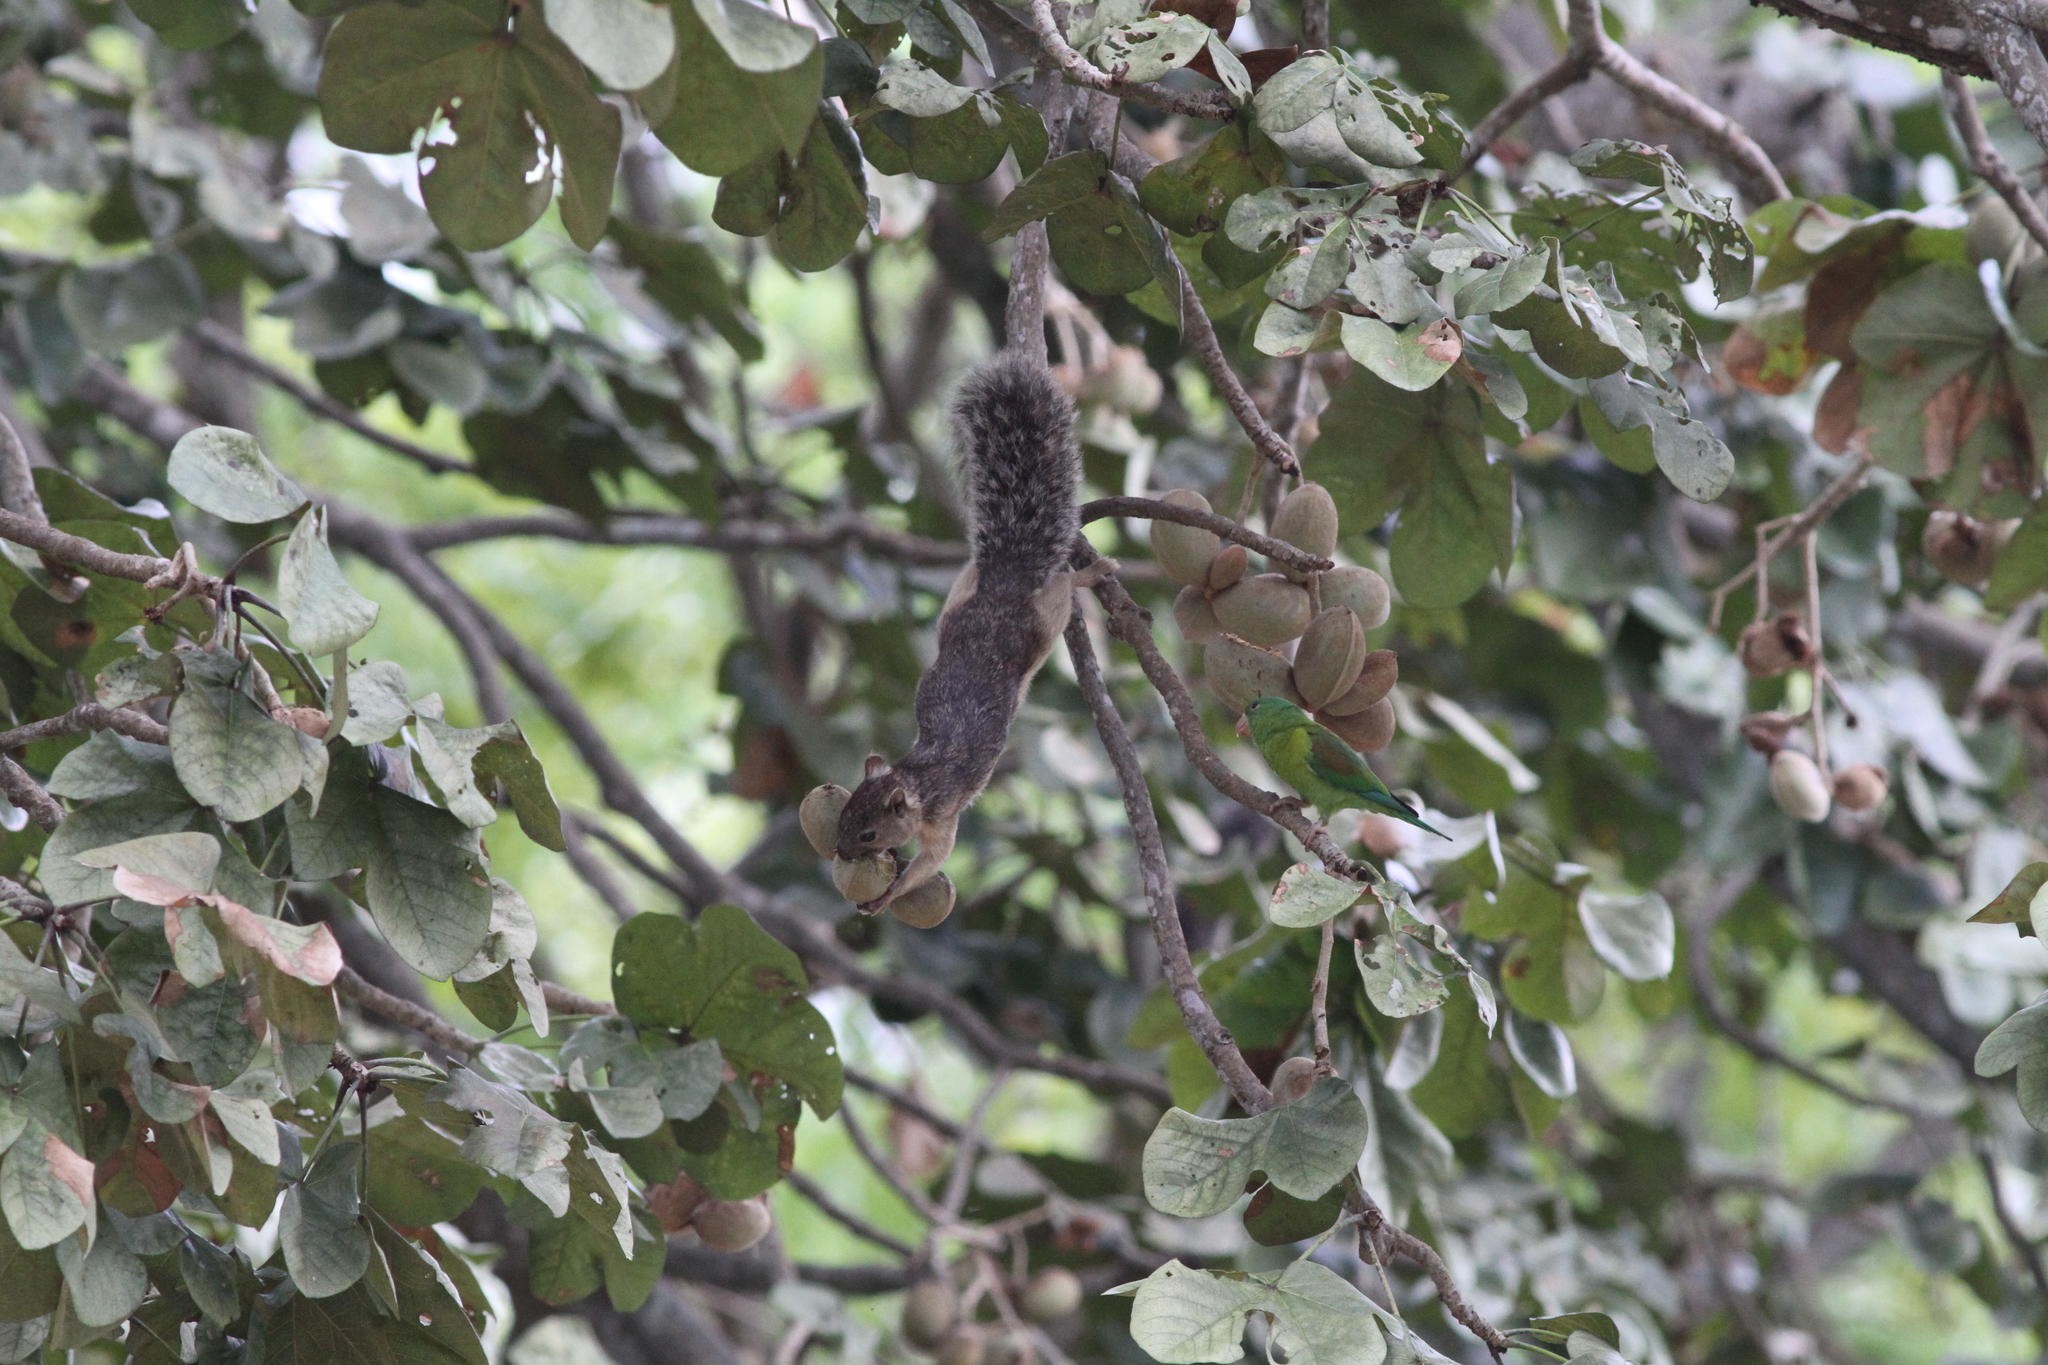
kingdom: Animalia
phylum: Chordata
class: Mammalia
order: Rodentia
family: Sciuridae
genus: Sciurus
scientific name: Sciurus variegatoides
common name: Variegated squirrel
